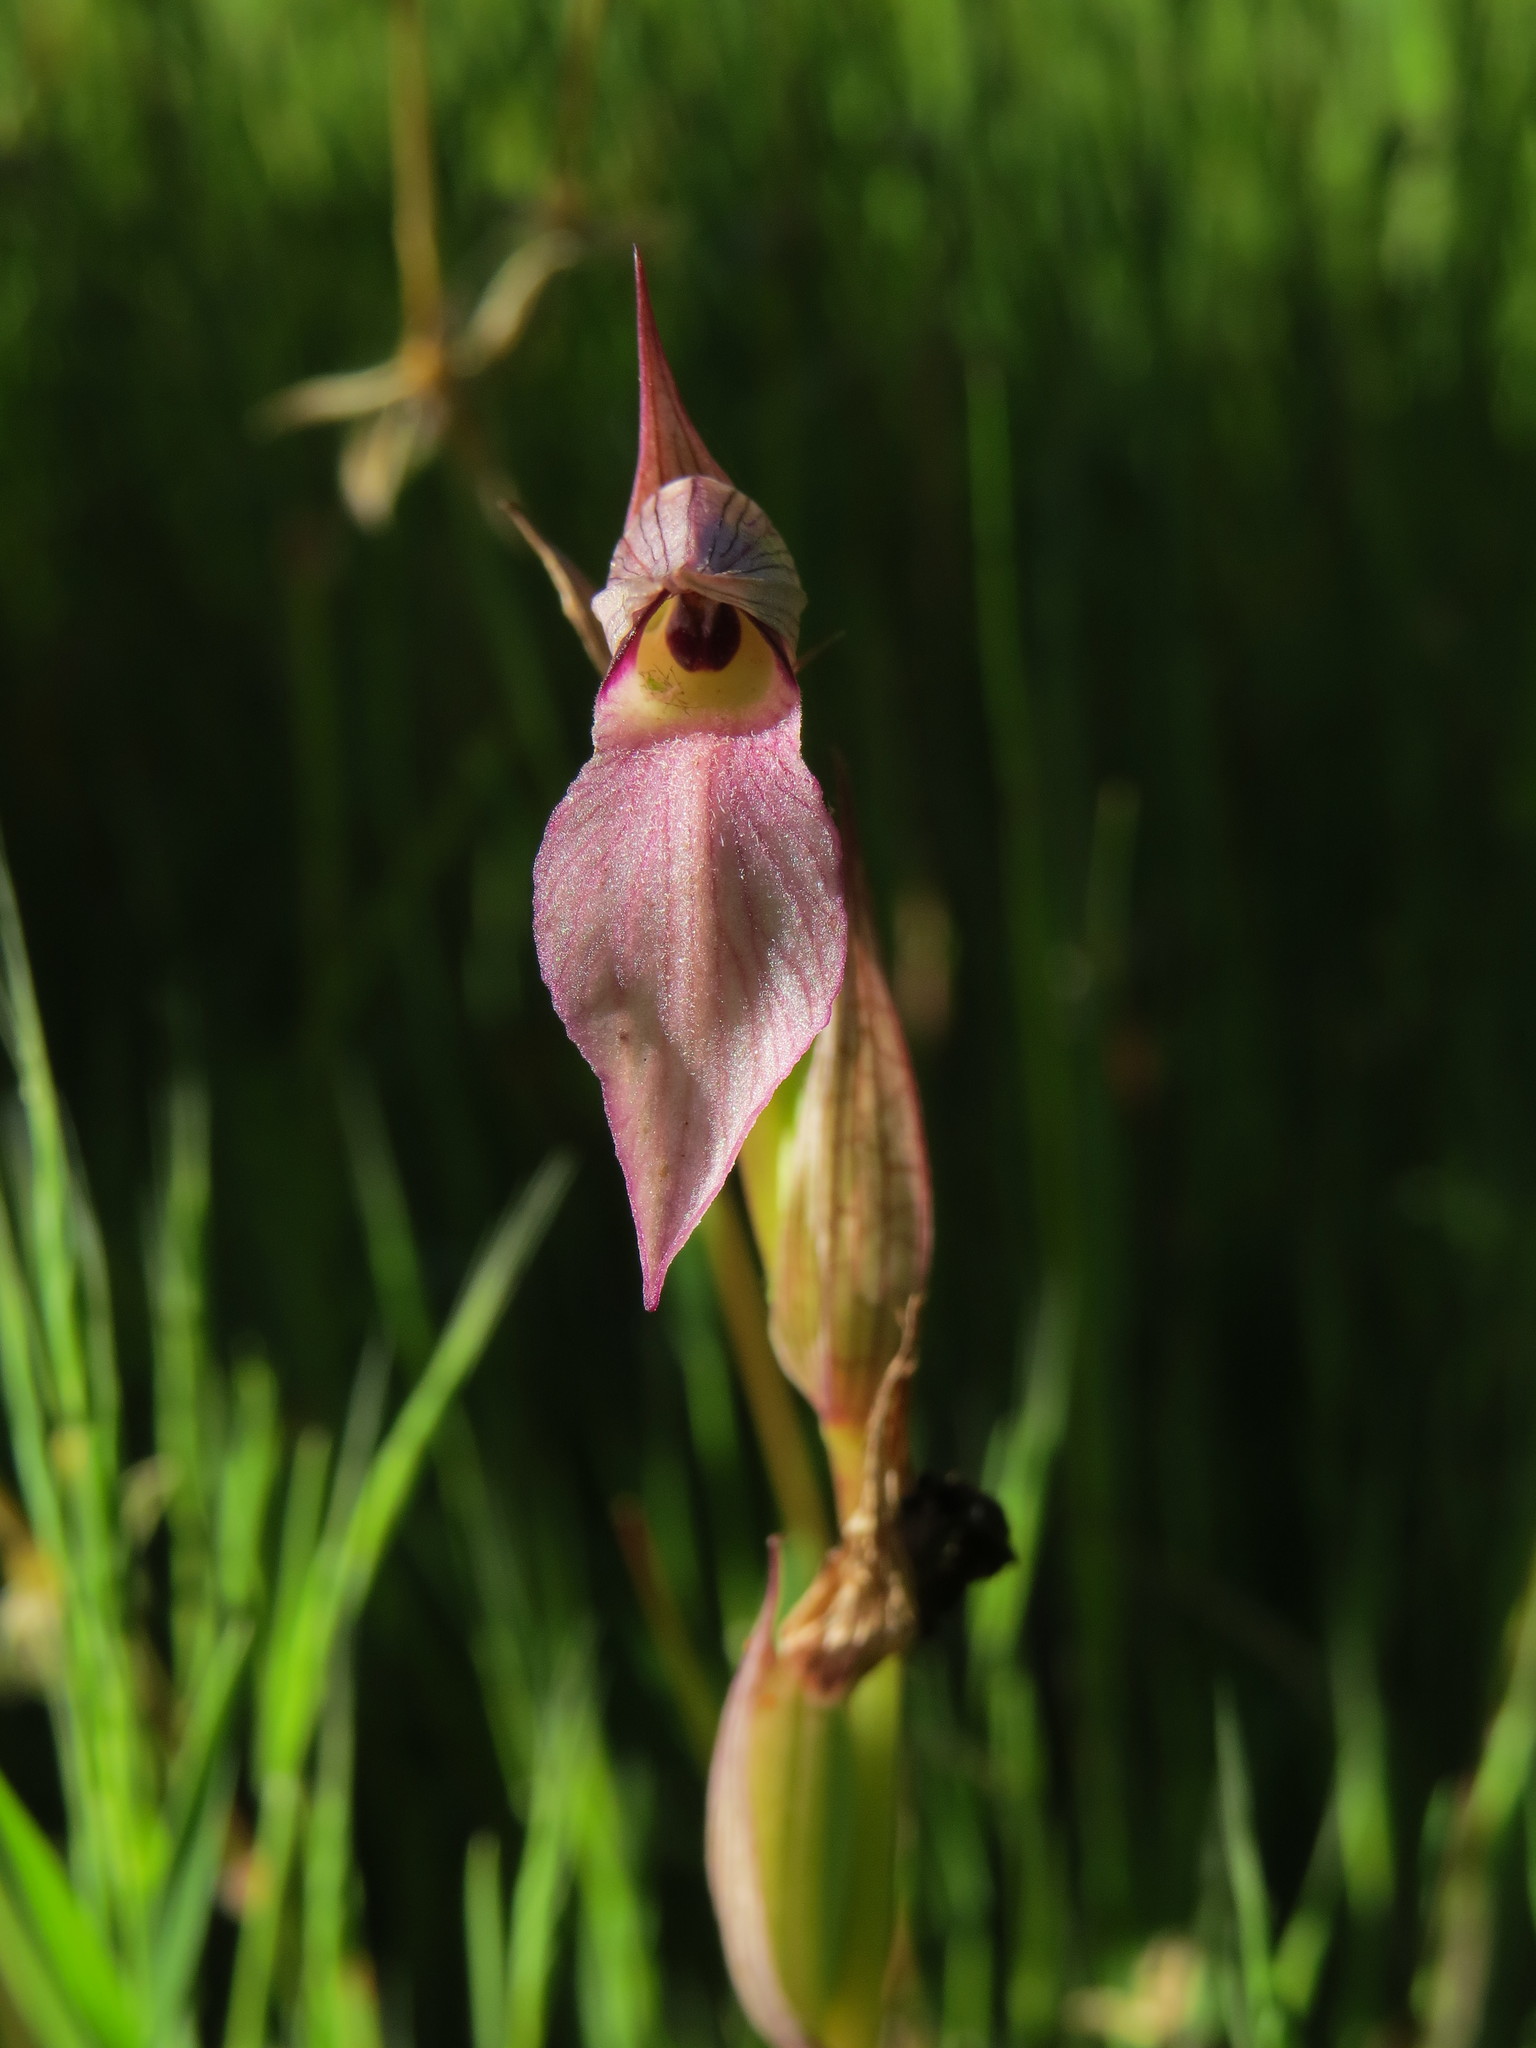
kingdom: Plantae
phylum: Tracheophyta
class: Liliopsida
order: Asparagales
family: Orchidaceae
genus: Serapias
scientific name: Serapias lingua
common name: Tongue-orchid
